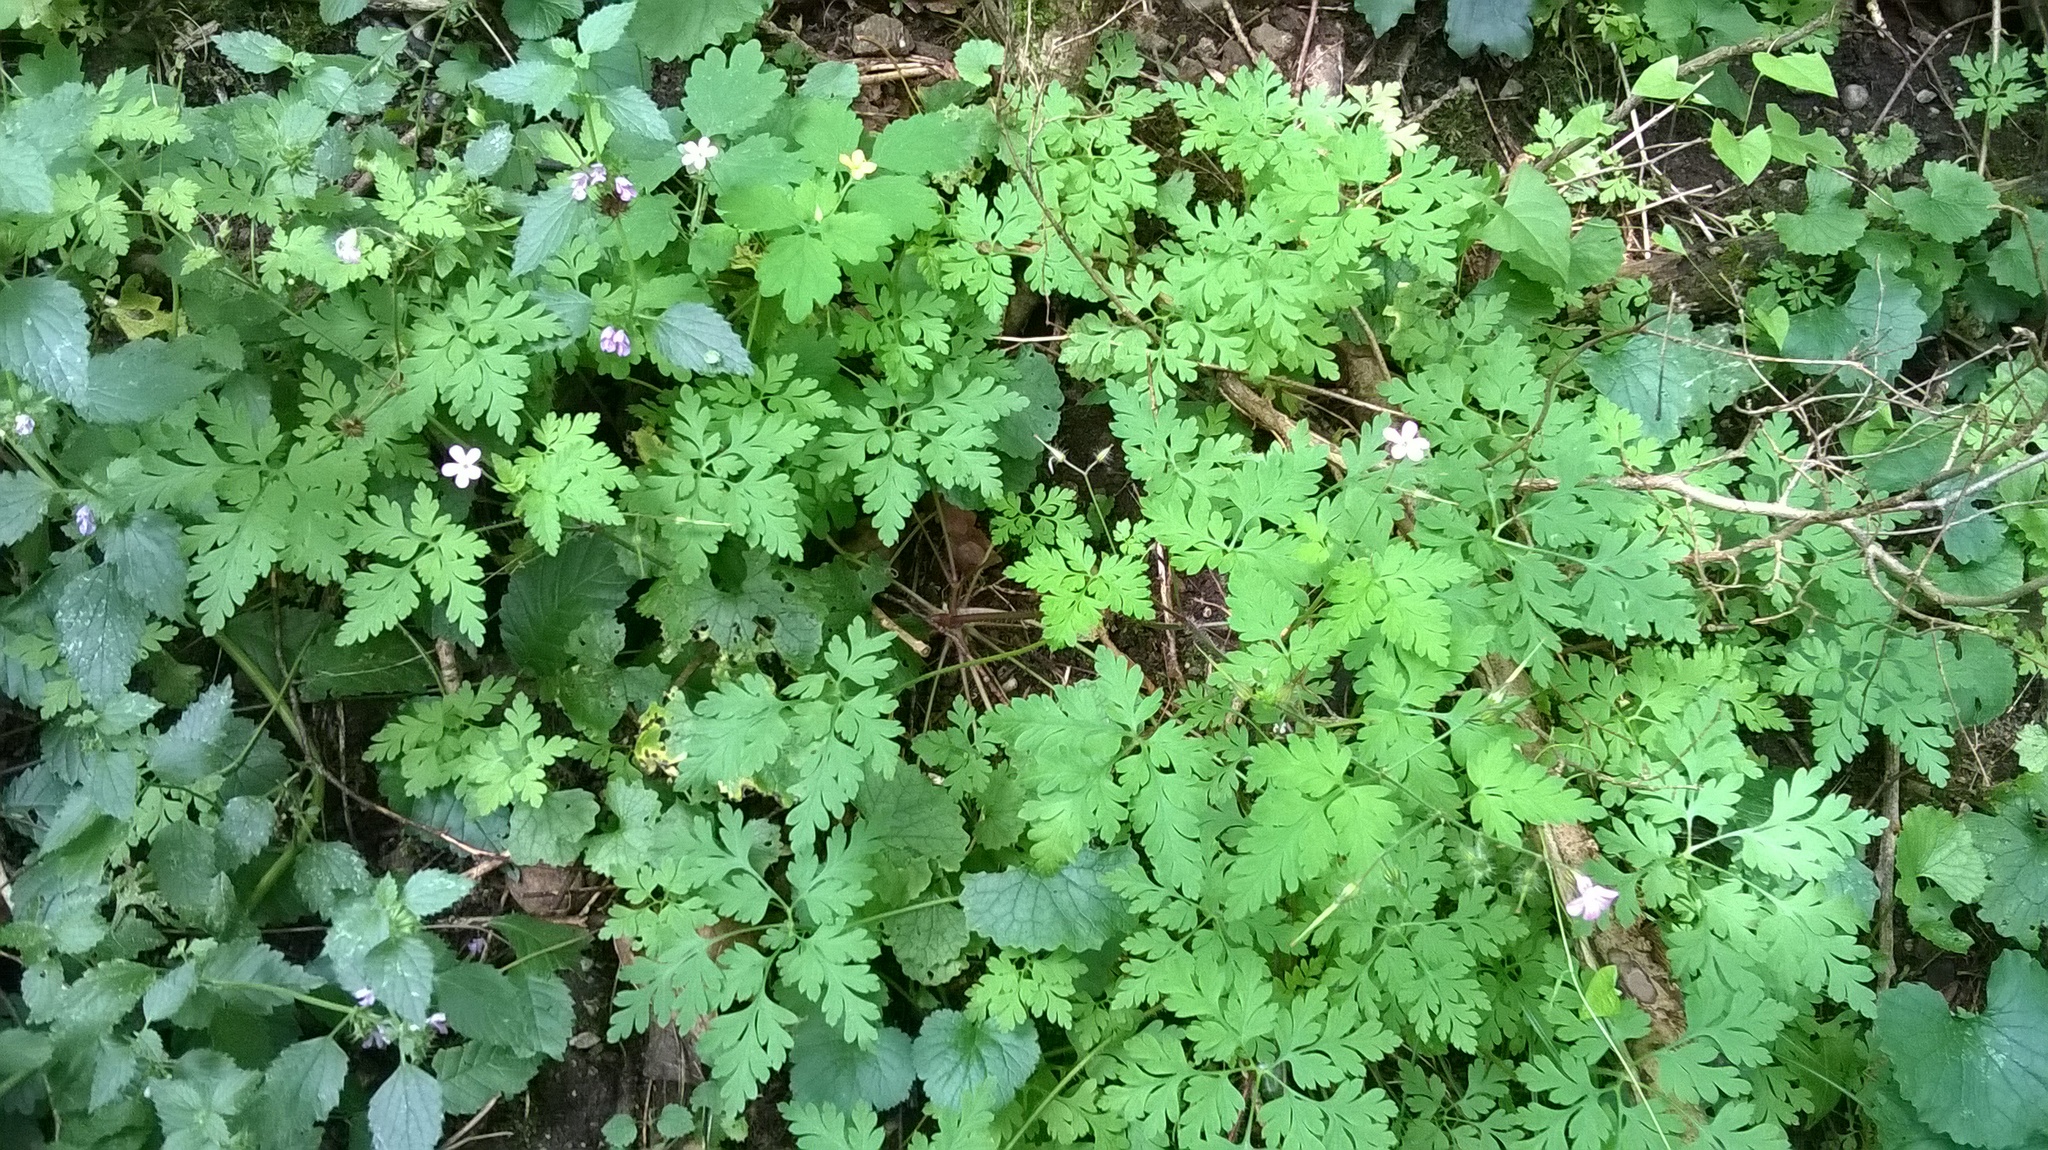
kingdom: Plantae
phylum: Tracheophyta
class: Magnoliopsida
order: Geraniales
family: Geraniaceae
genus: Geranium
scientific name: Geranium robertianum
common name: Herb-robert
